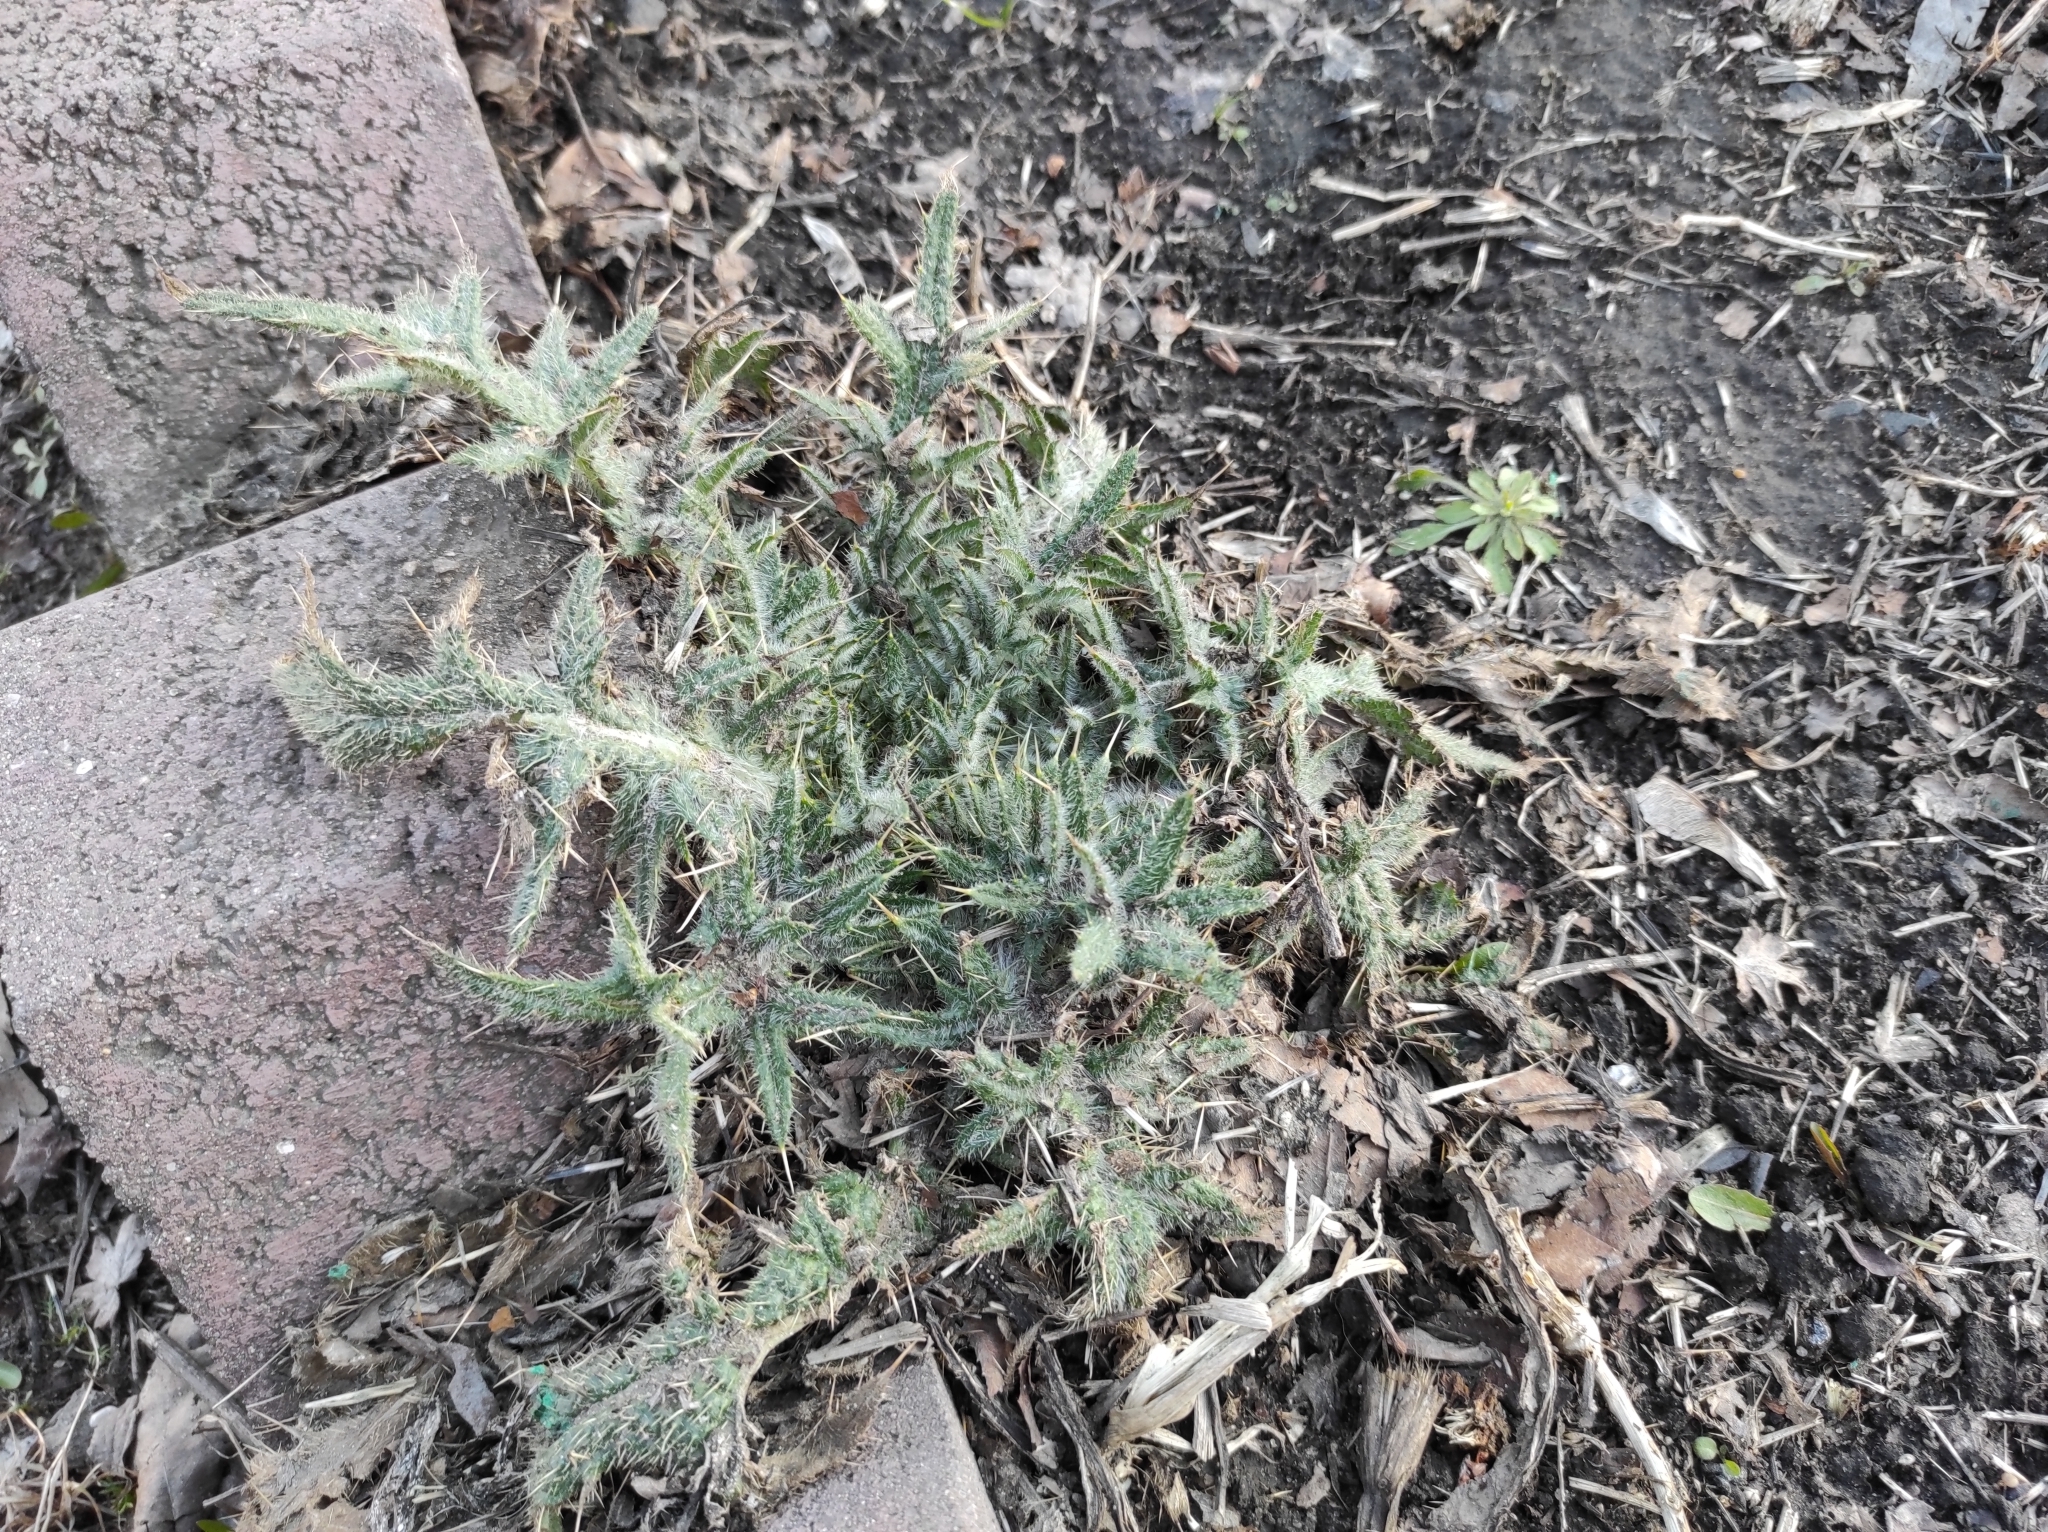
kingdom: Plantae
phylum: Tracheophyta
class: Magnoliopsida
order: Asterales
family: Asteraceae
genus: Cirsium
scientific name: Cirsium vulgare
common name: Bull thistle
